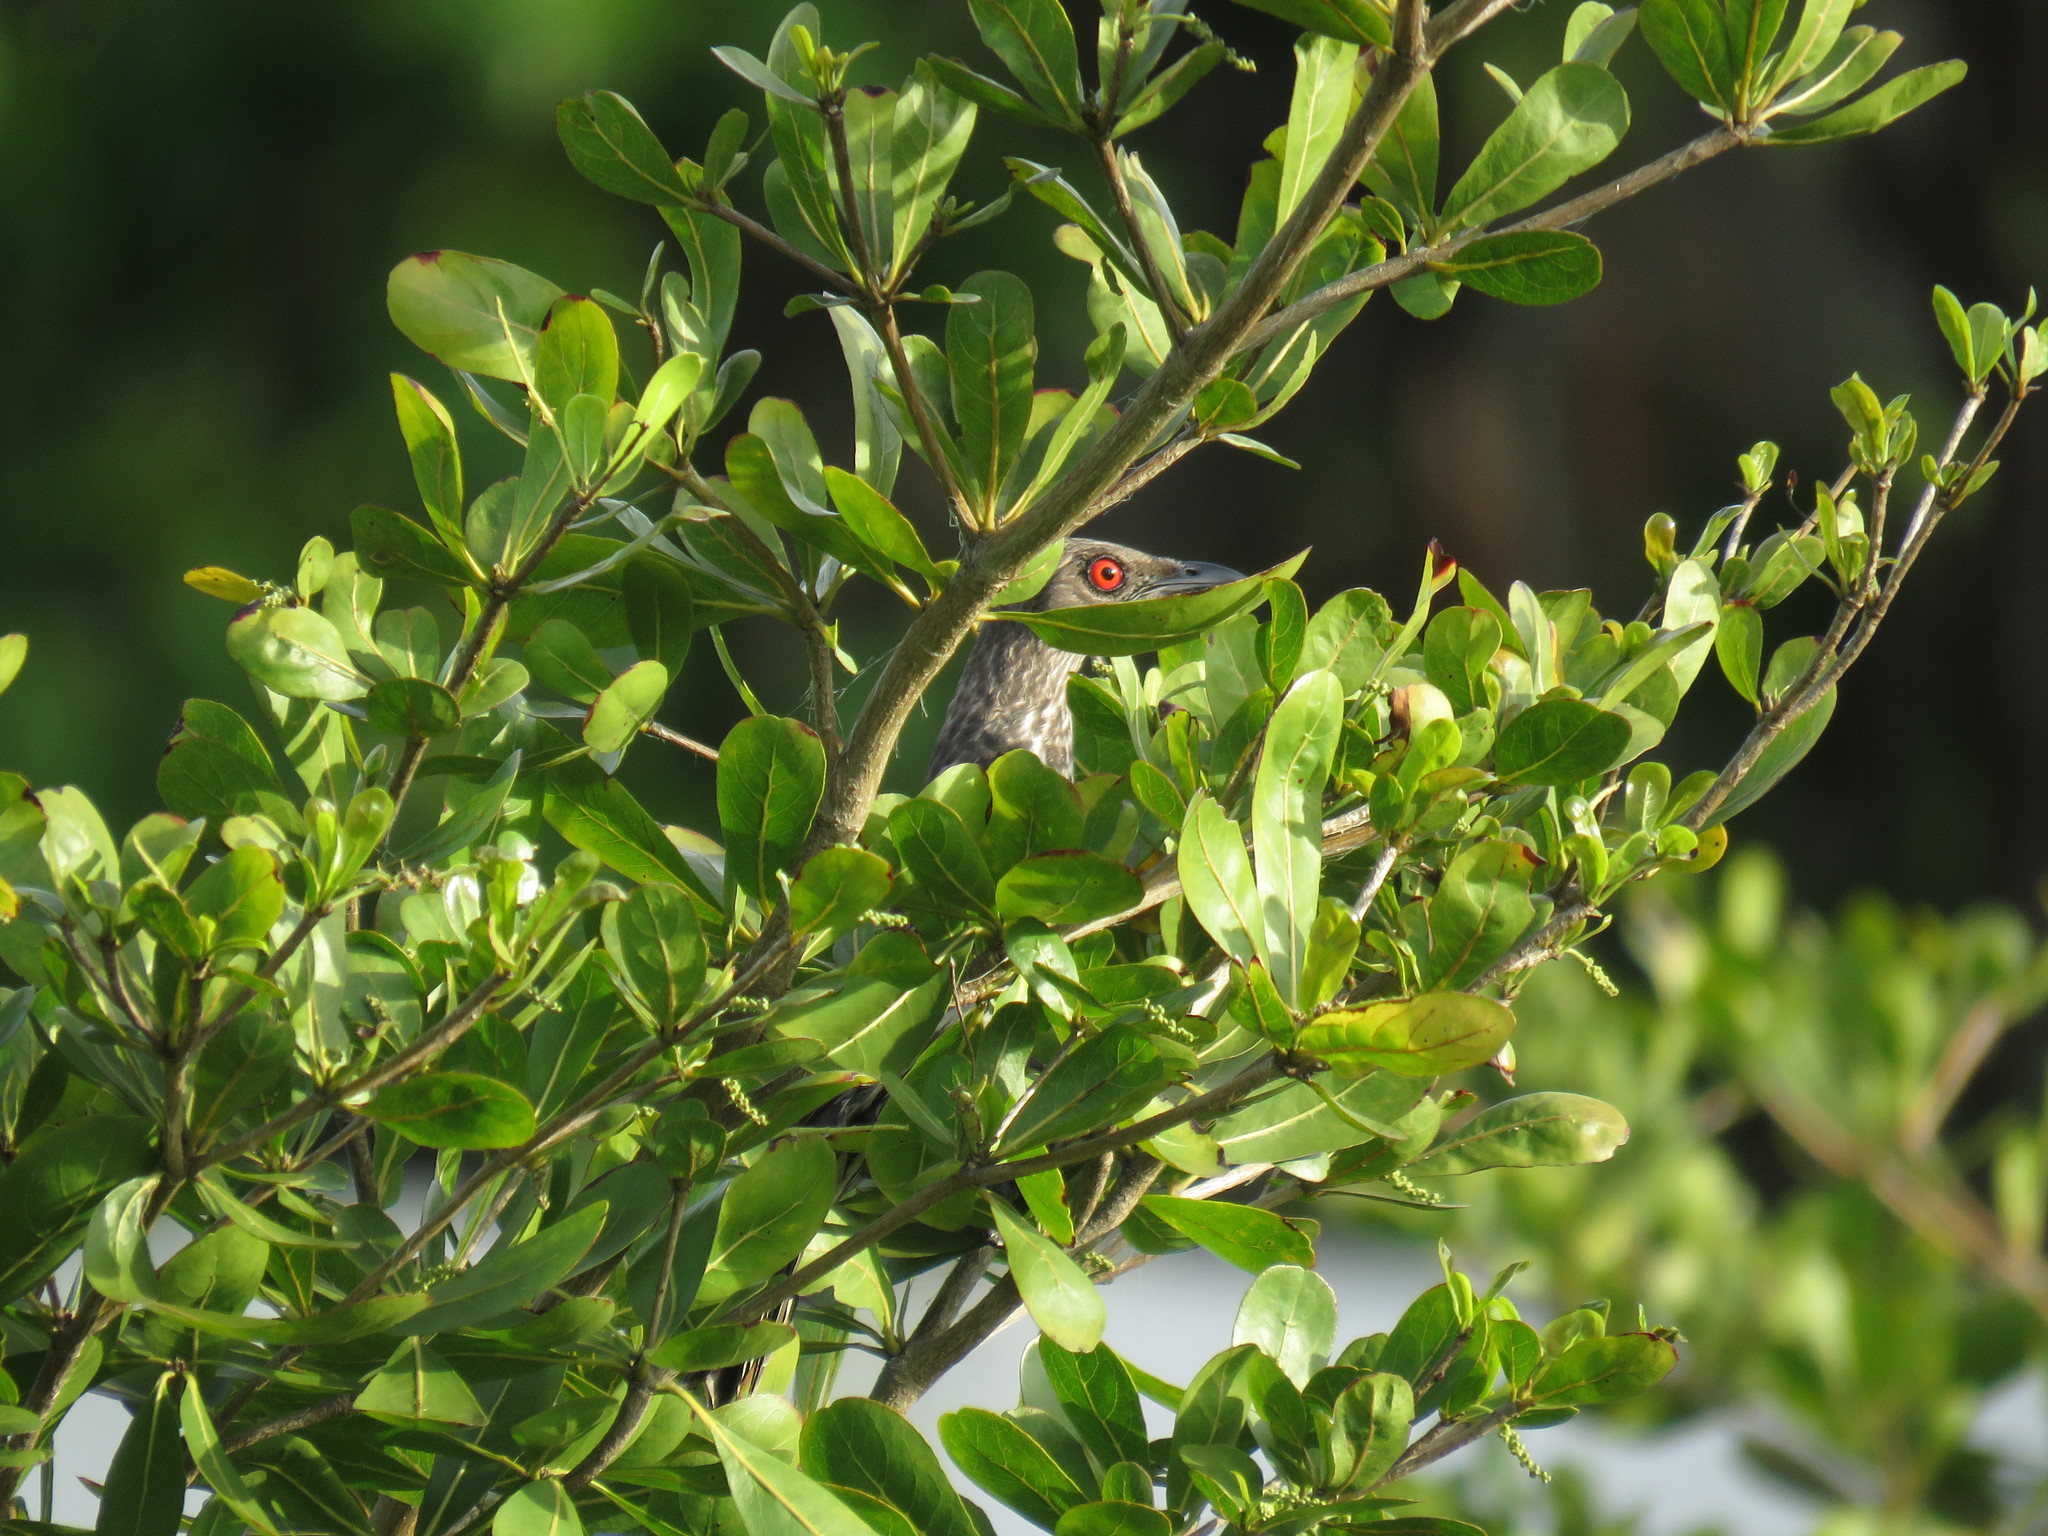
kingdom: Animalia
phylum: Chordata
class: Aves
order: Passeriformes
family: Sturnidae
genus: Aplonis
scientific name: Aplonis panayensis
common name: Asian glossy starling
